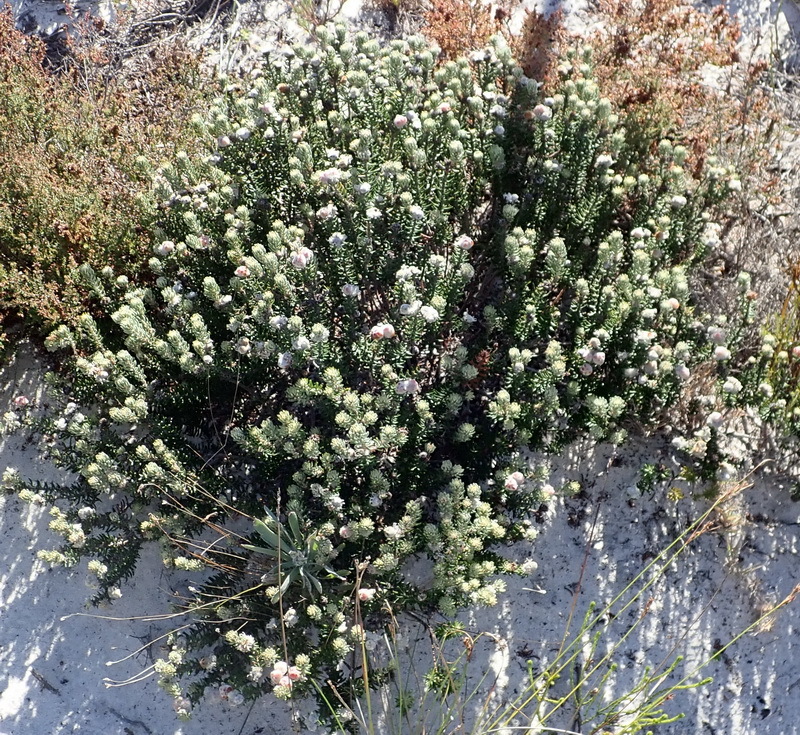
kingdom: Plantae
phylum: Tracheophyta
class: Magnoliopsida
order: Rosales
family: Rhamnaceae
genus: Trichocephalus
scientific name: Trichocephalus stipularis
